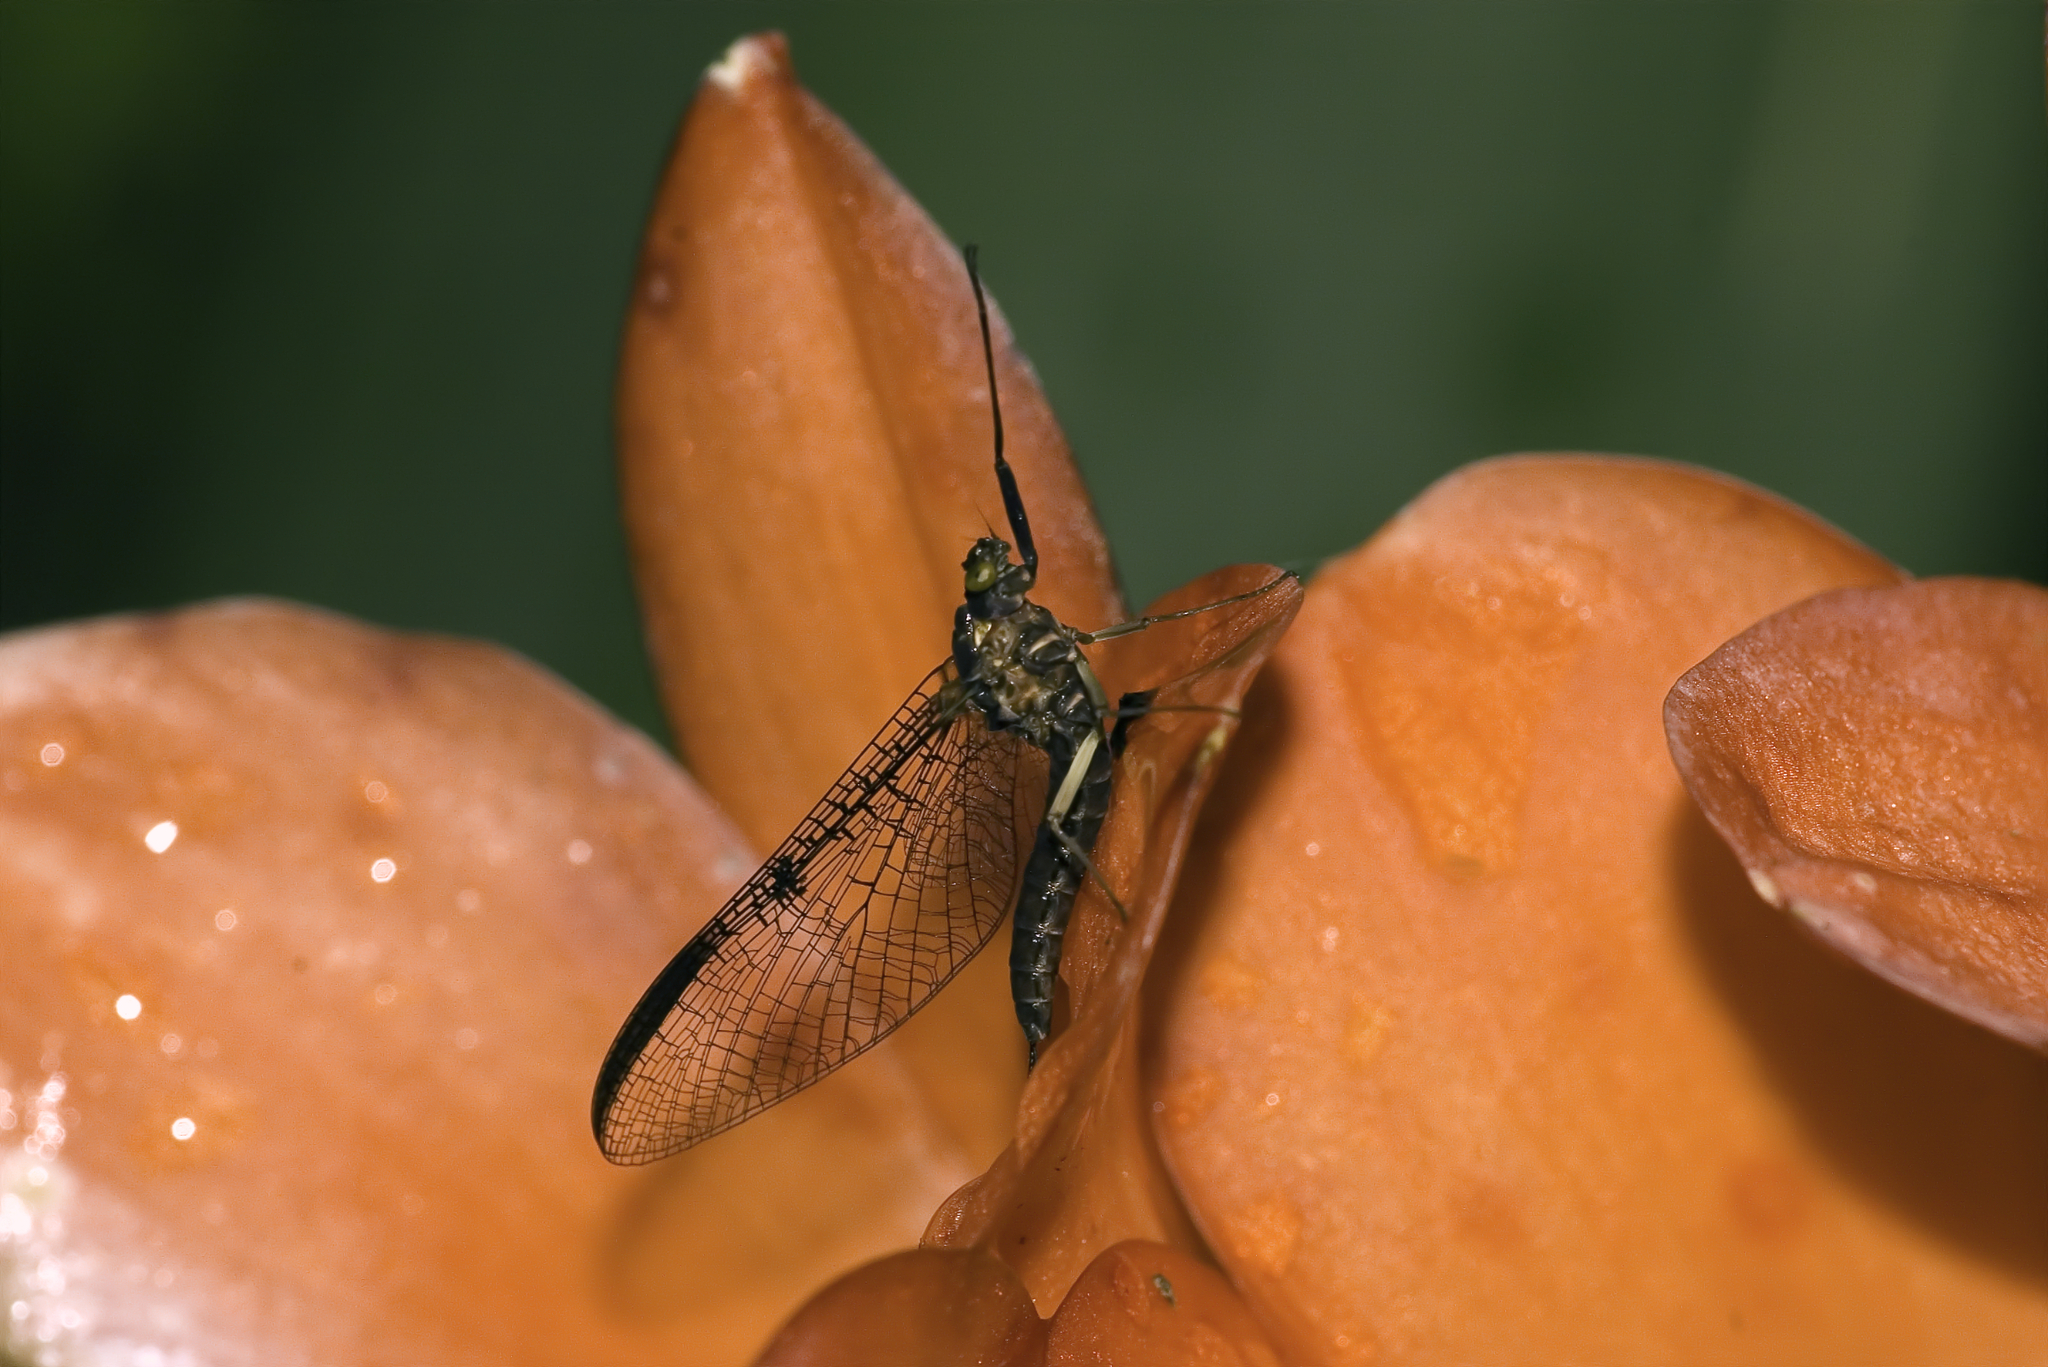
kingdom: Animalia
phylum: Arthropoda
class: Insecta
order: Ephemeroptera
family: Coloburiscidae
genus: Coloburiscus
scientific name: Coloburiscus humeralis
